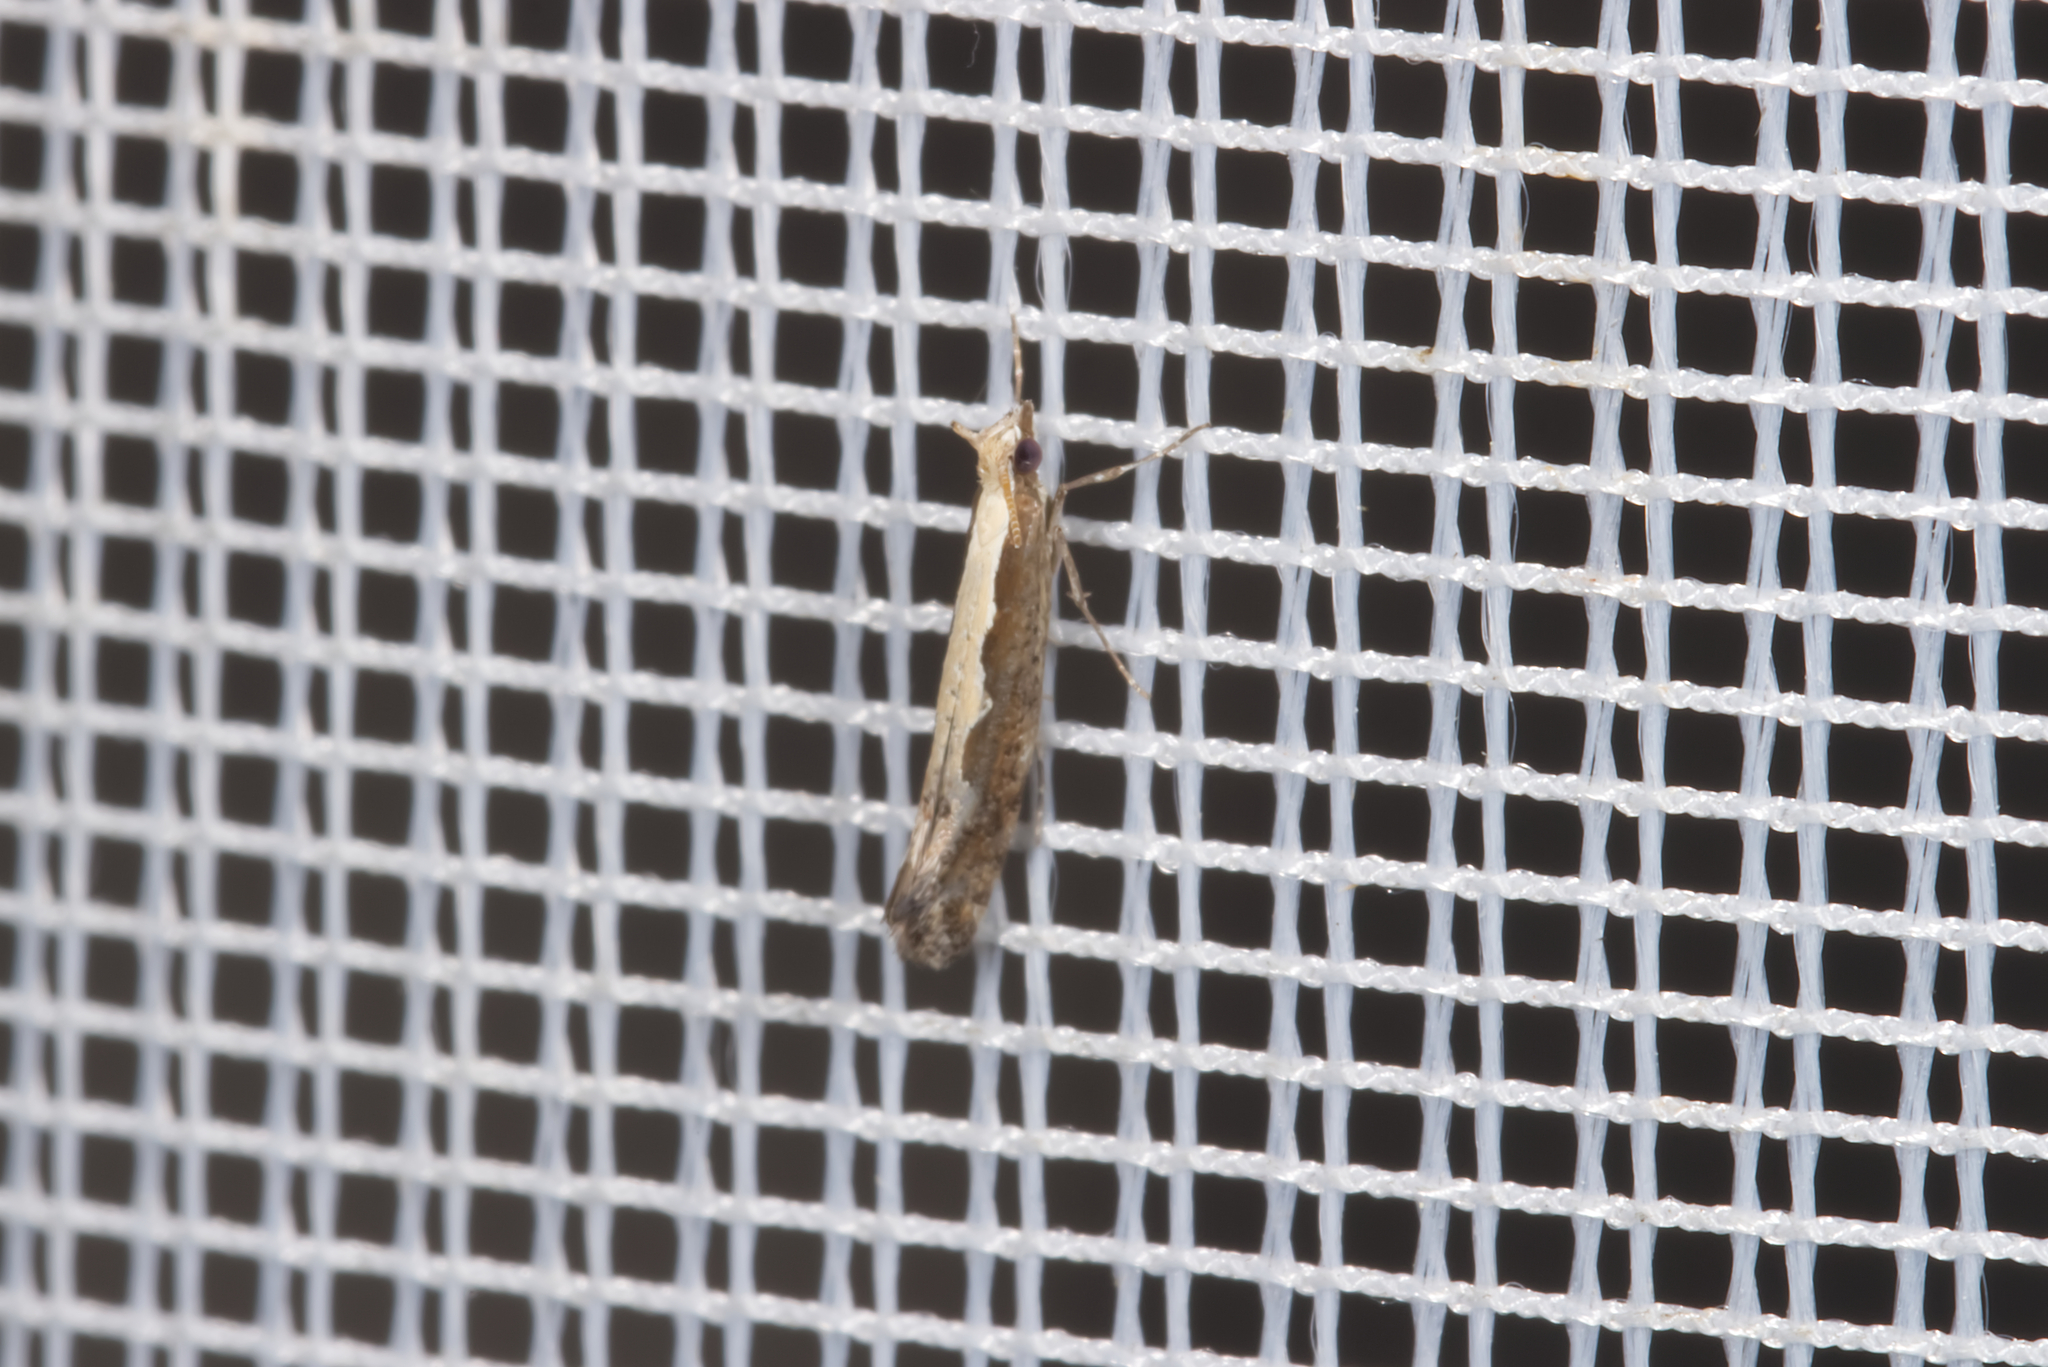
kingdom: Animalia
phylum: Arthropoda
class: Insecta
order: Lepidoptera
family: Plutellidae
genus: Plutella
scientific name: Plutella xylostella
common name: Diamond-back moth
